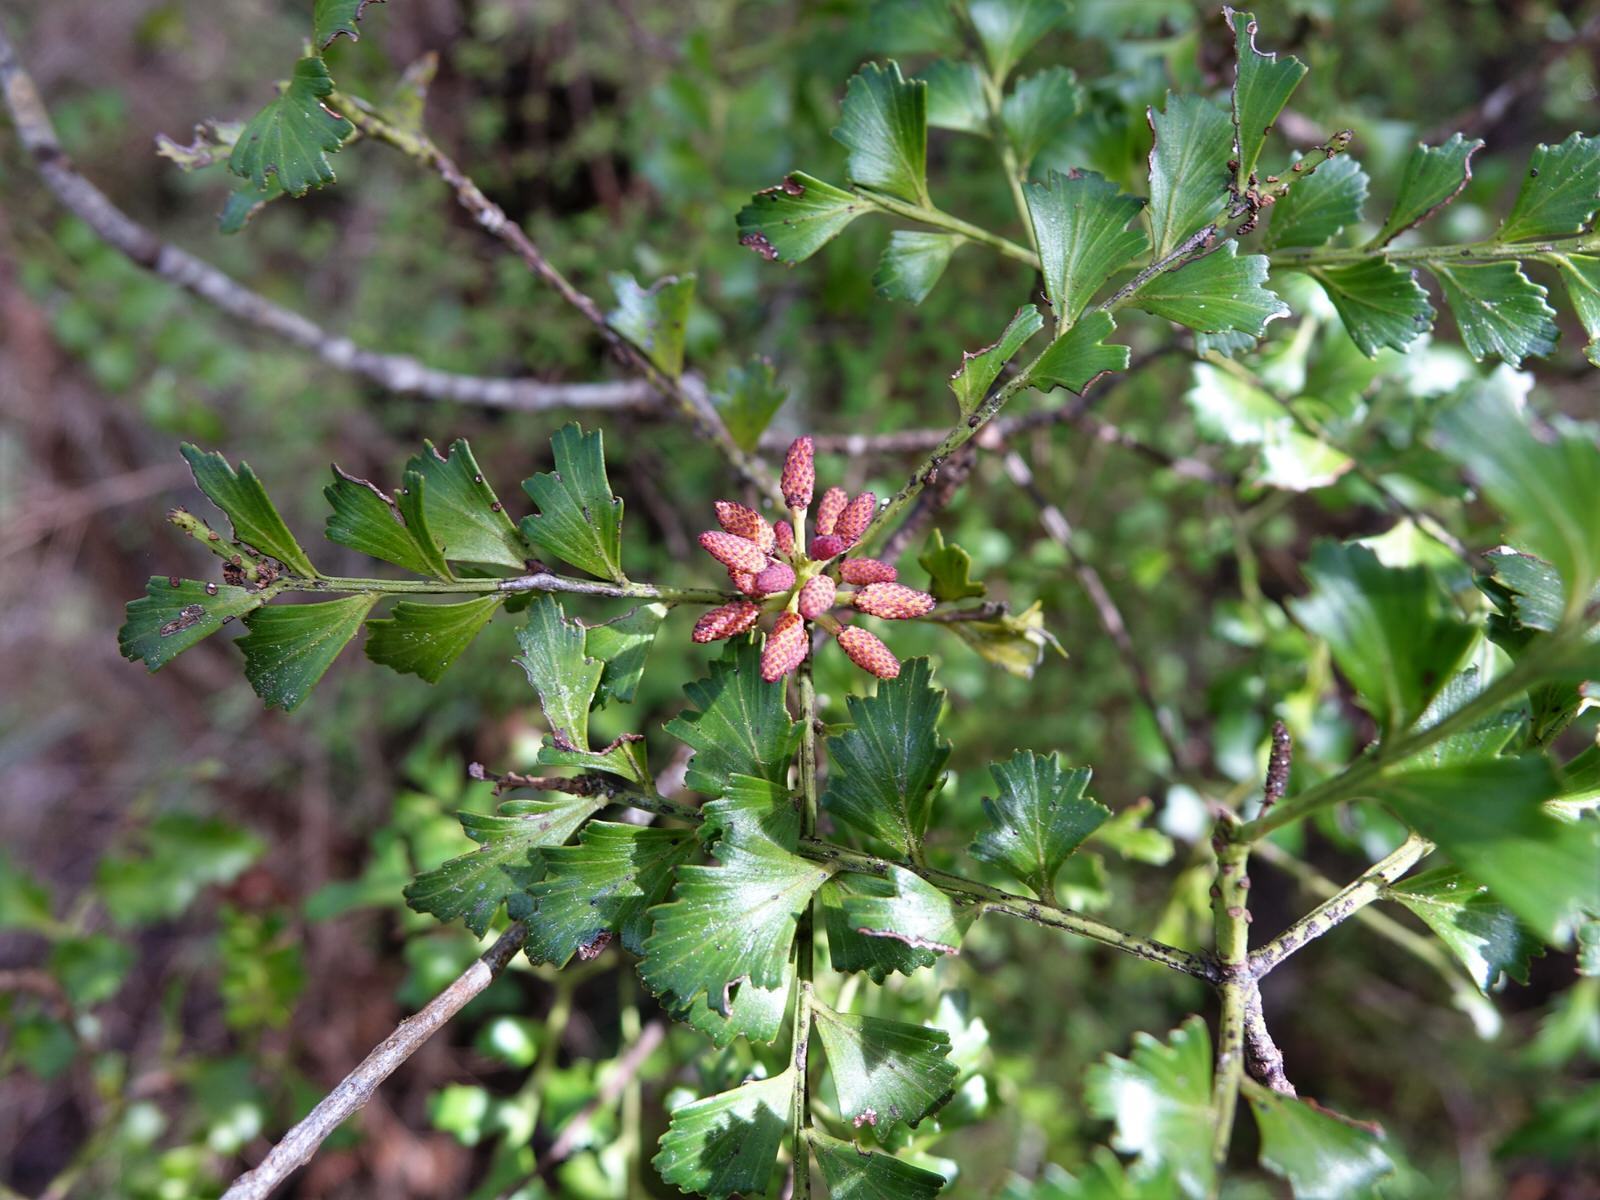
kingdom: Plantae
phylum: Tracheophyta
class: Pinopsida
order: Pinales
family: Phyllocladaceae
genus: Phyllocladus
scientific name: Phyllocladus trichomanoides
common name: Celery pine
